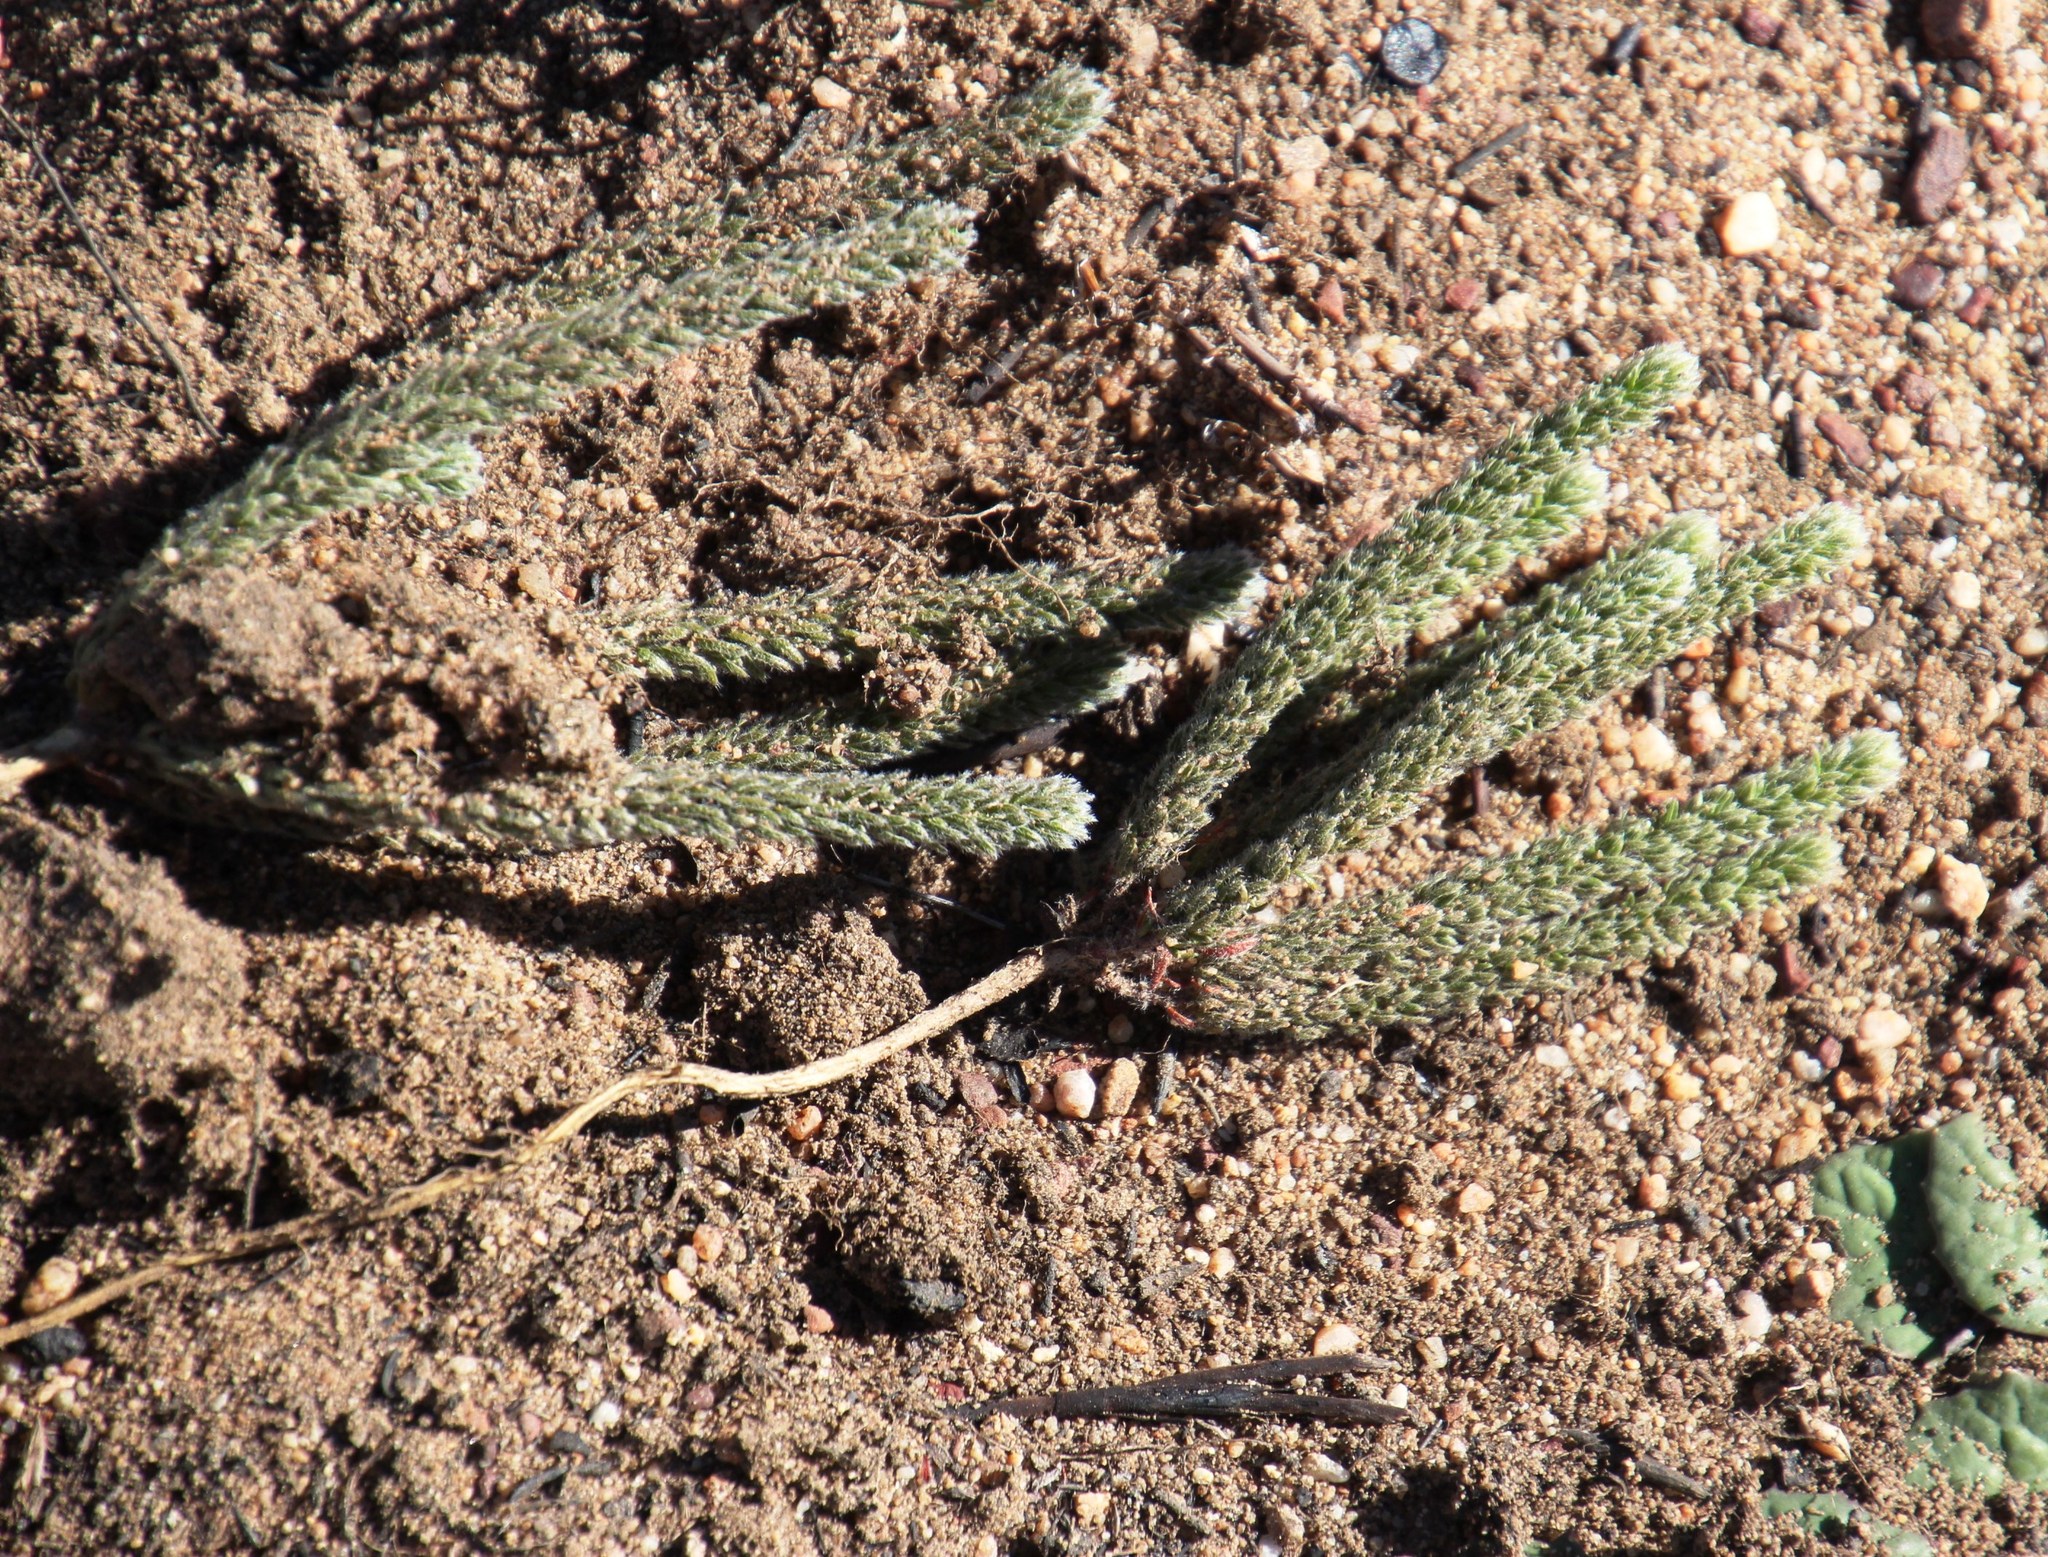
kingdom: Plantae
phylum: Tracheophyta
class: Magnoliopsida
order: Fabales
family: Fabaceae
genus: Aspalathus
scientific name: Aspalathus triquetra
